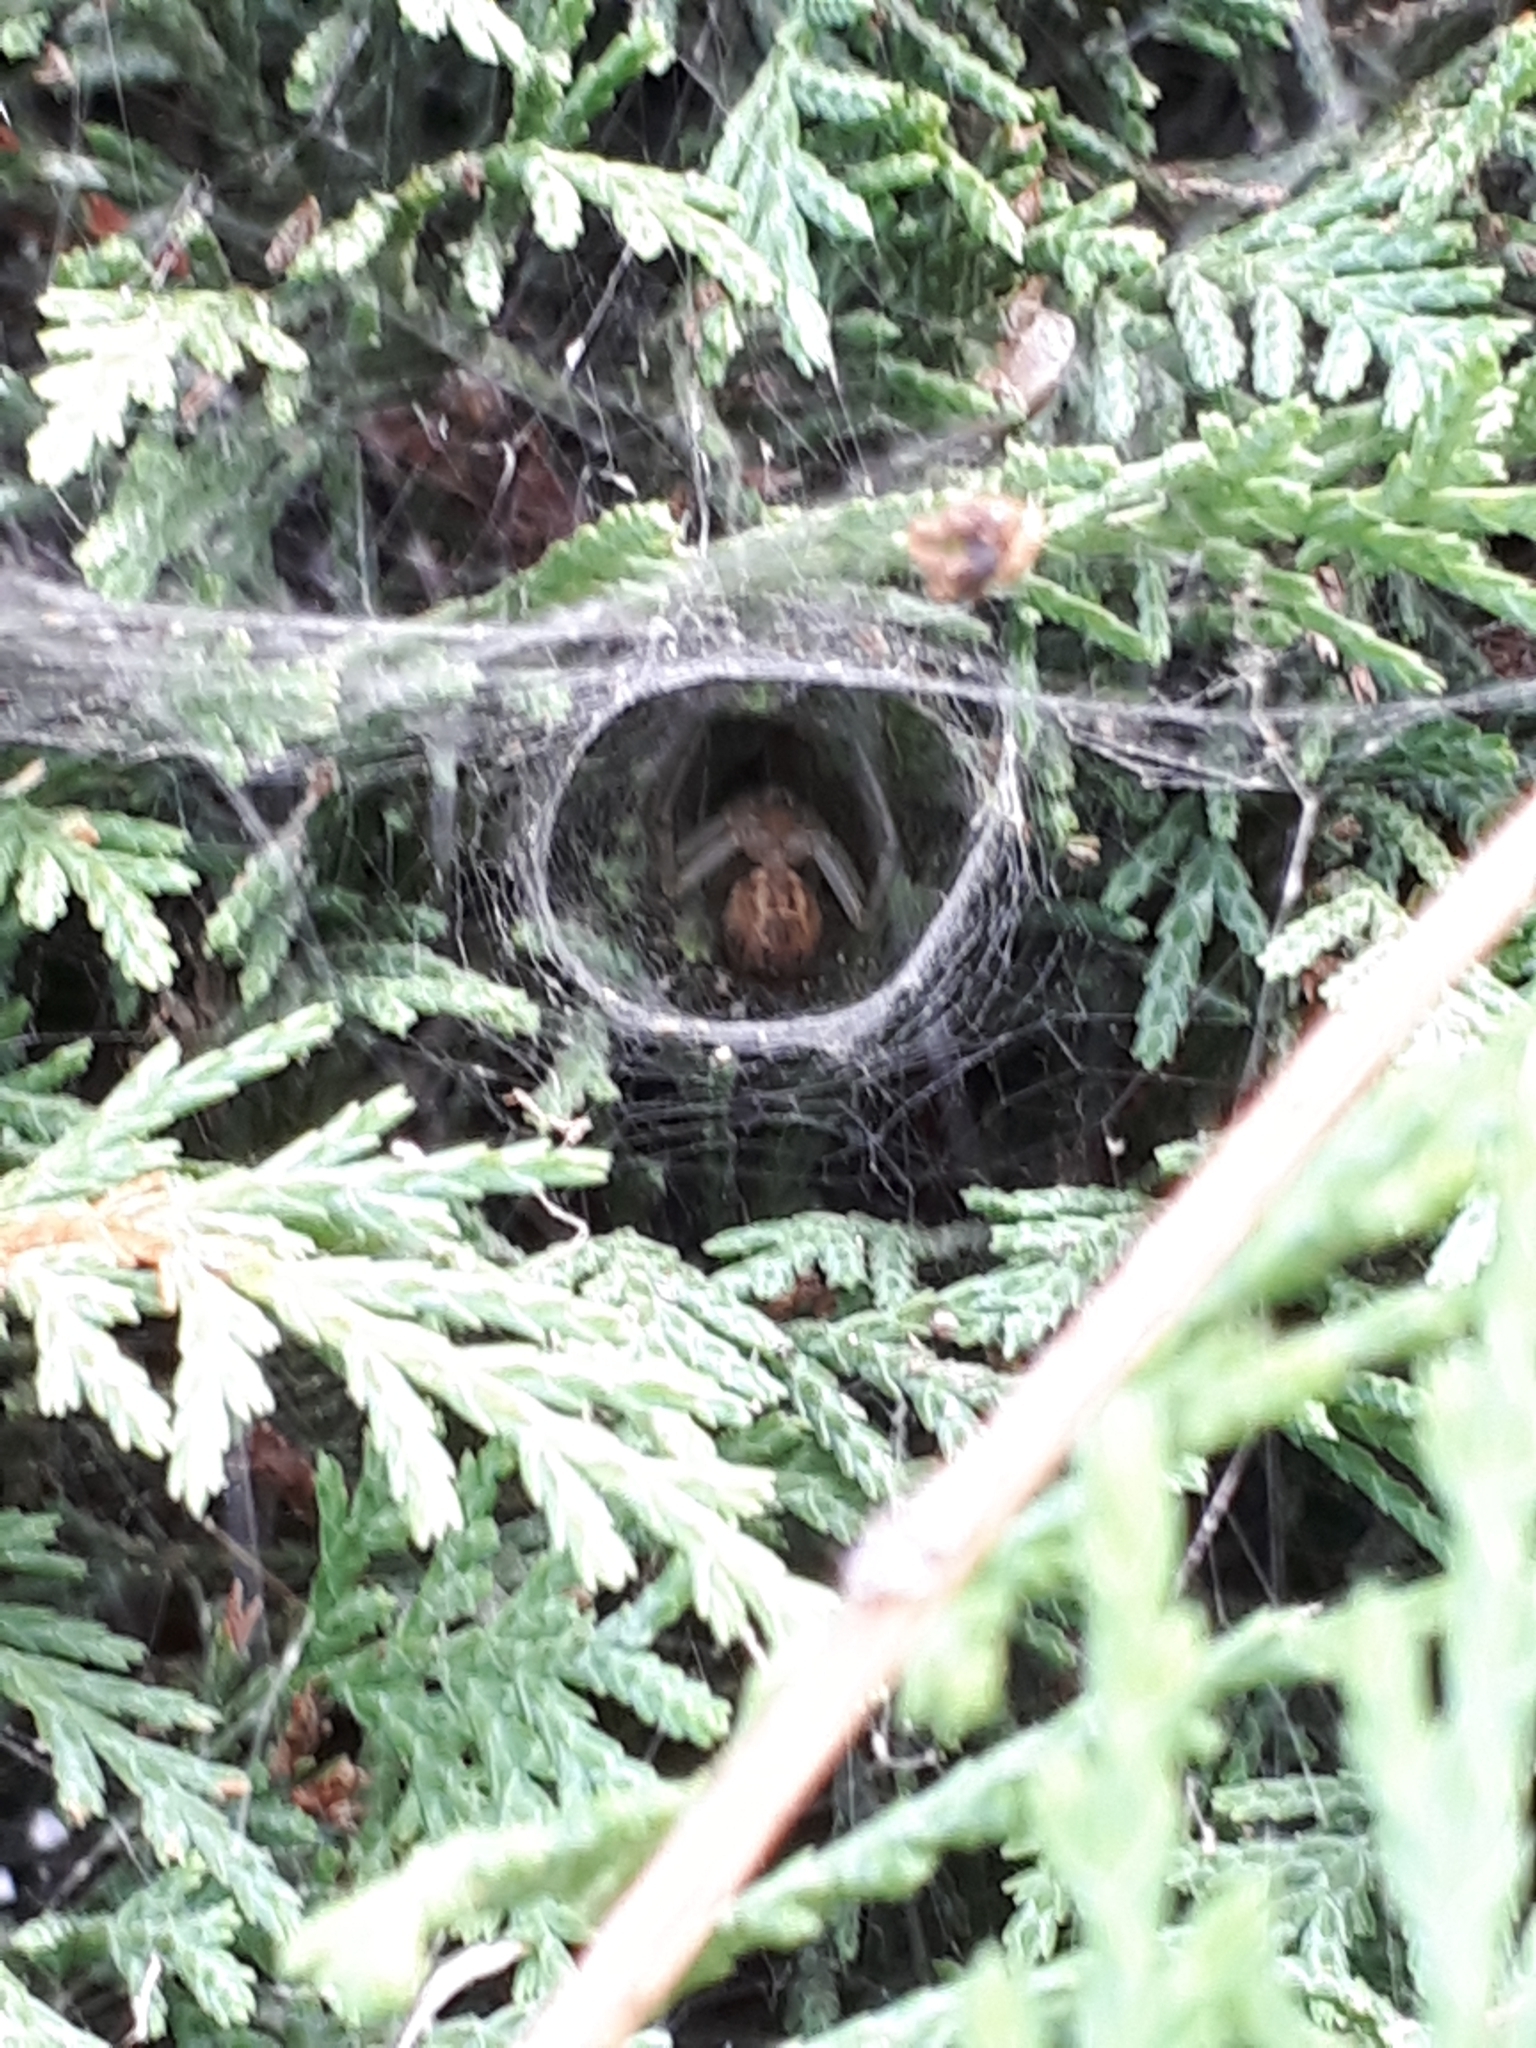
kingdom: Animalia
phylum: Arthropoda
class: Arachnida
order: Araneae
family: Theridiidae
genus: Steatoda
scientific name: Steatoda nobilis
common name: Cobweb weaver
